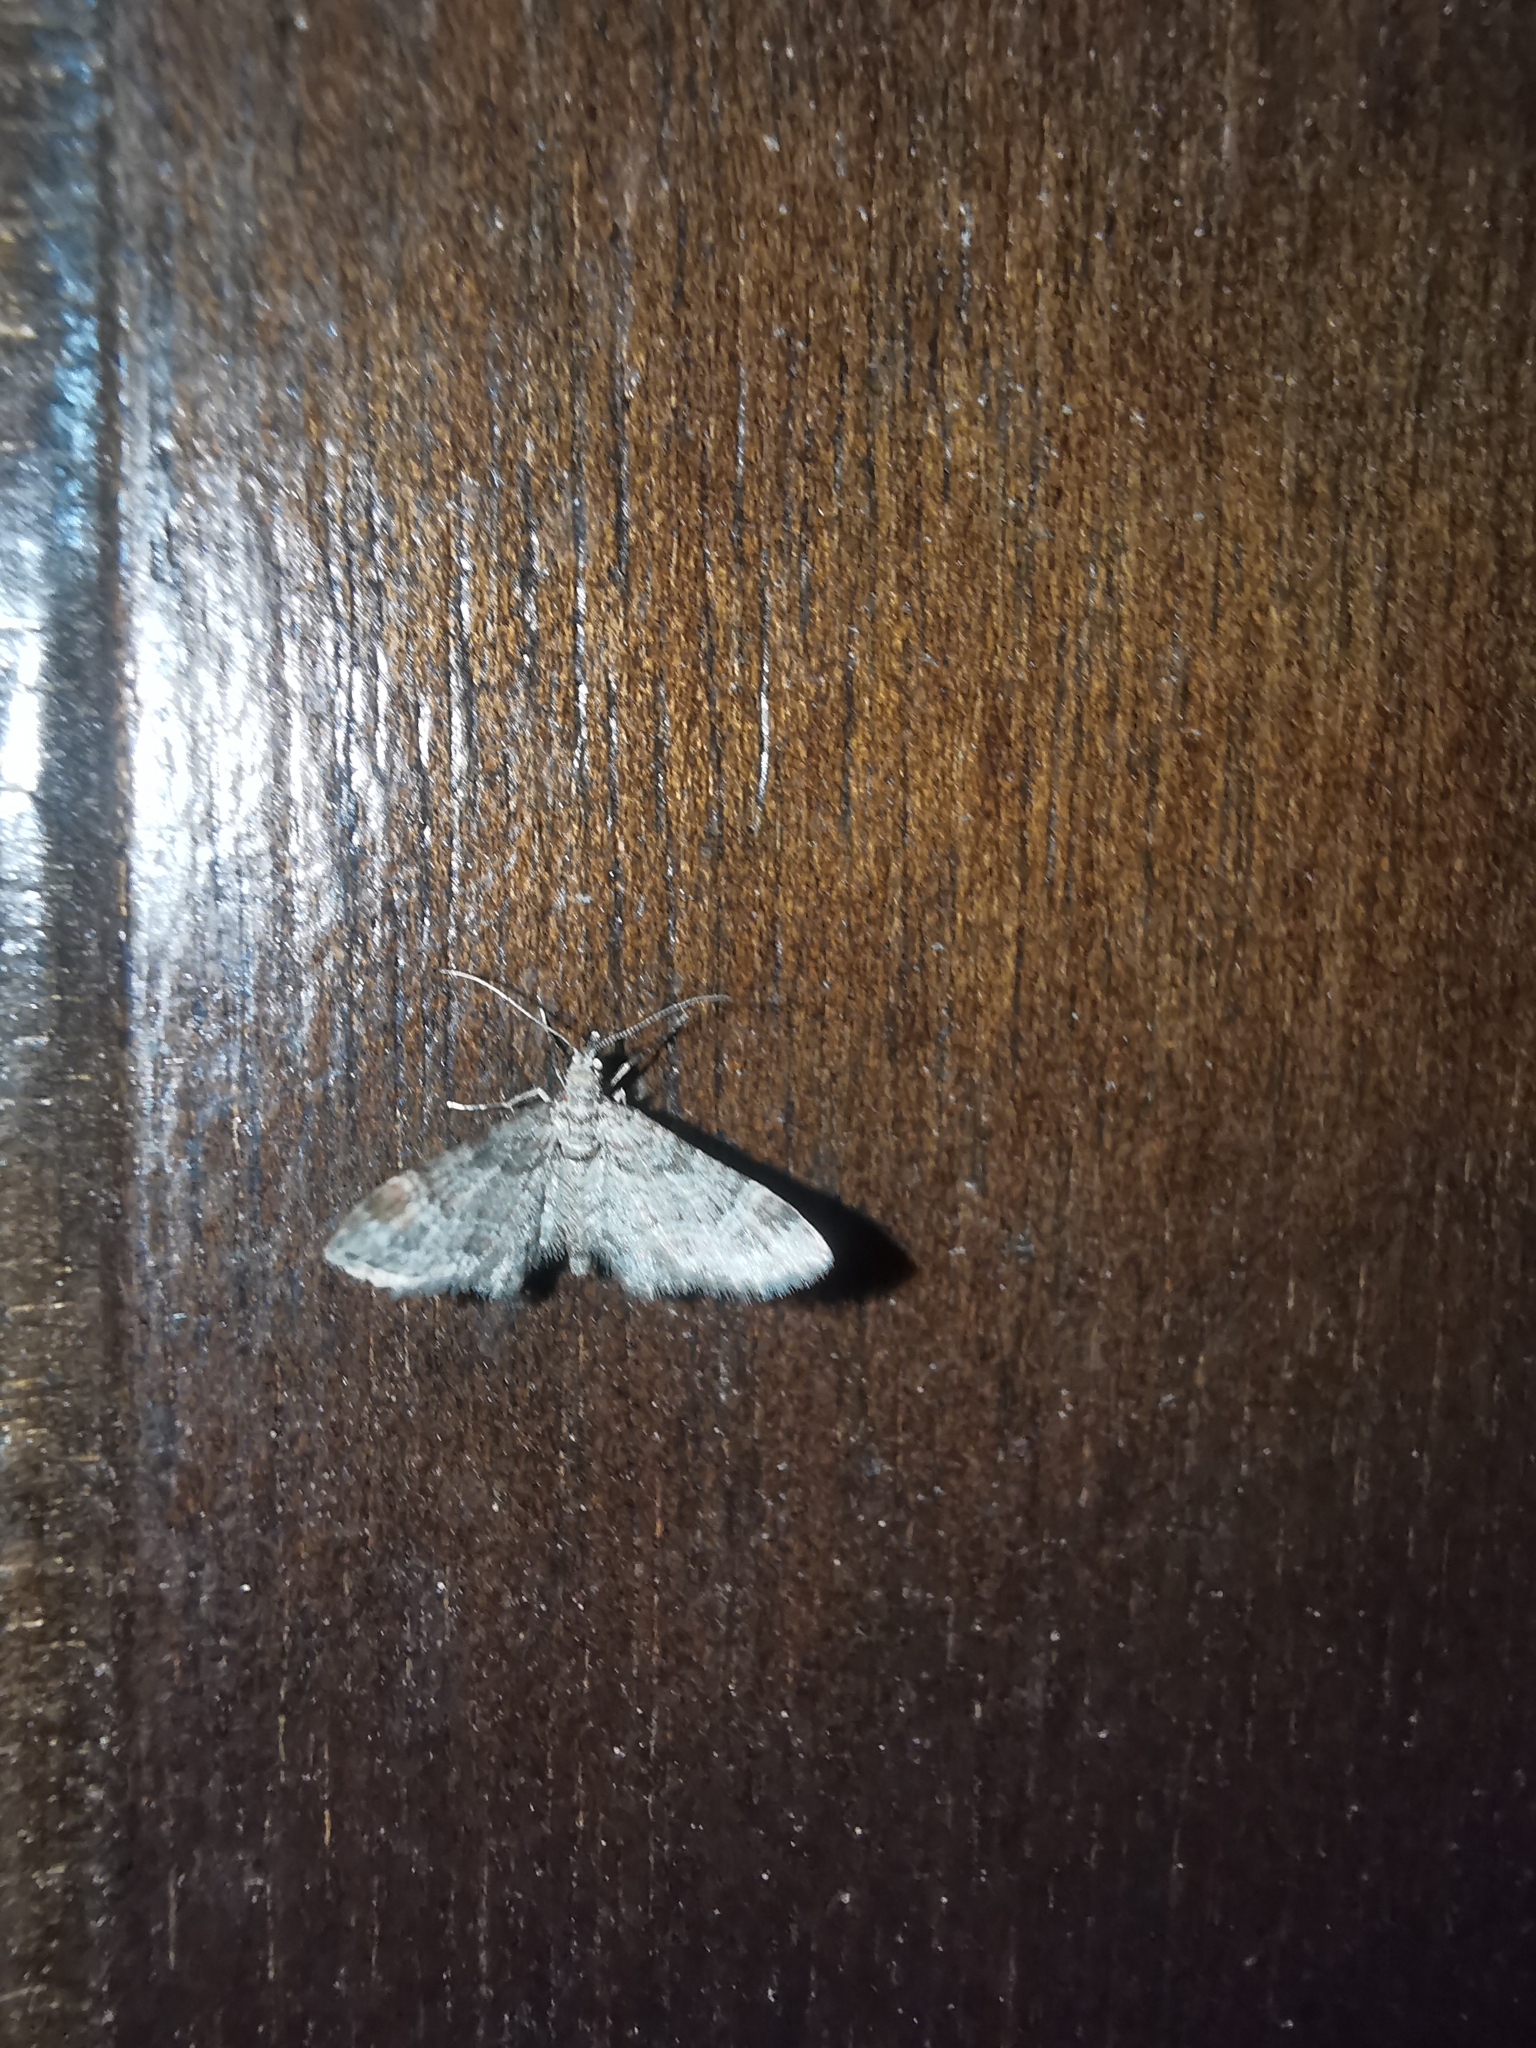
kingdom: Animalia
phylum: Arthropoda
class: Insecta
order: Lepidoptera
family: Geometridae
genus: Gymnoscelis
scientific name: Gymnoscelis rufifasciata
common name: Double-striped pug
